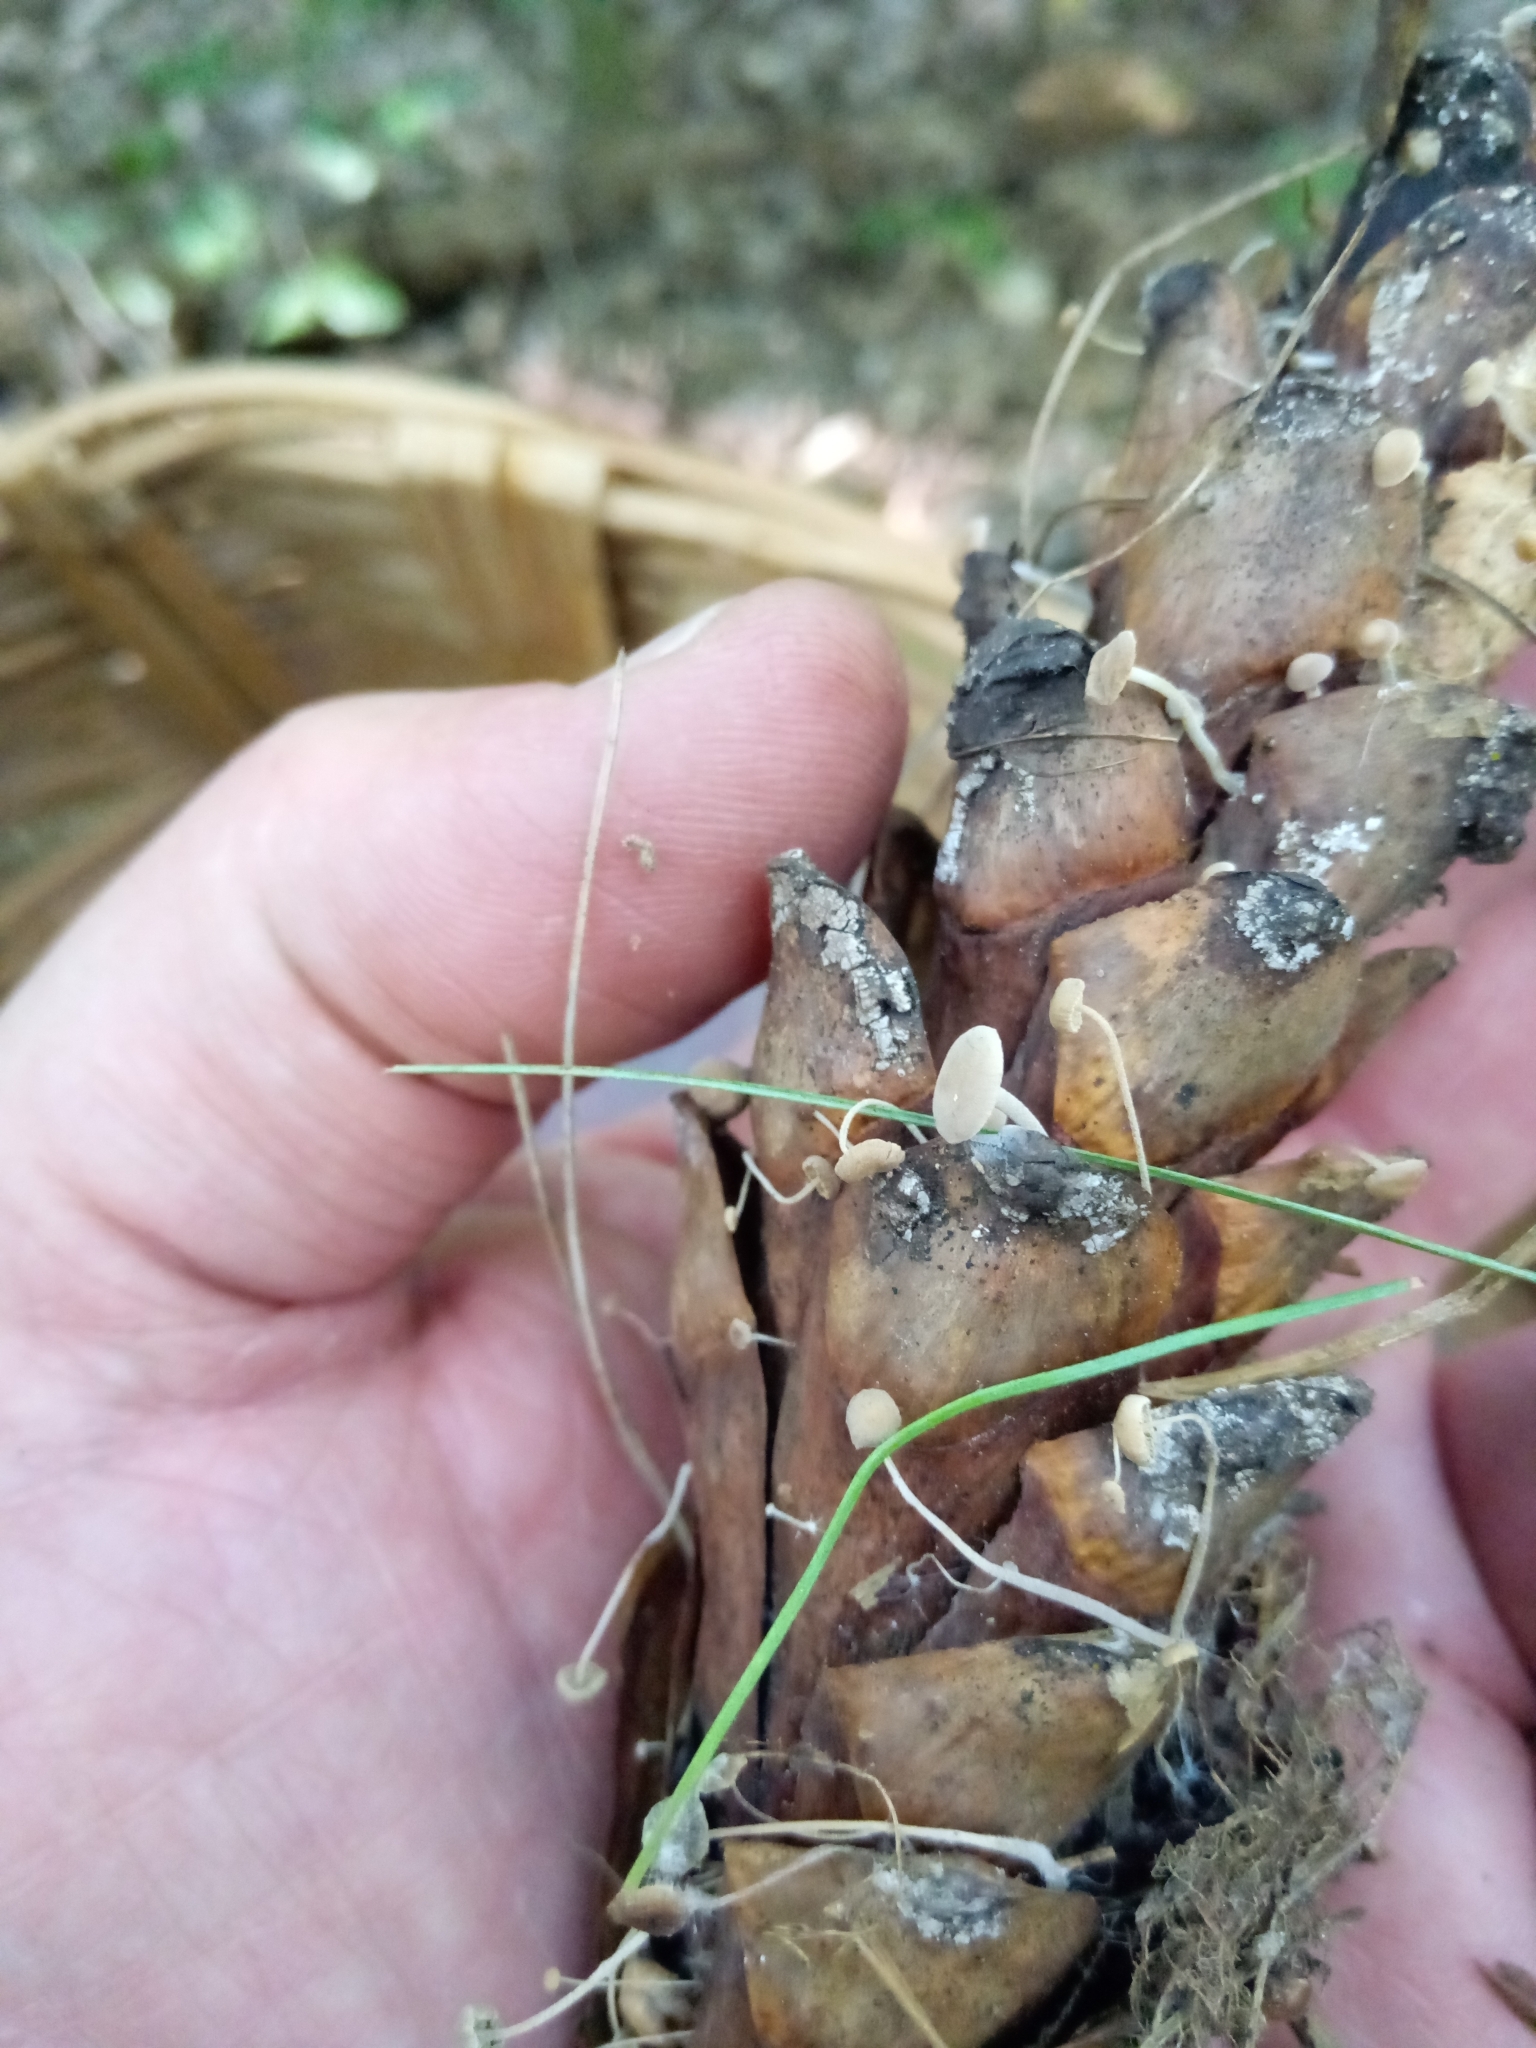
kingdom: Fungi
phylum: Basidiomycota
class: Agaricomycetes
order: Agaricales
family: Marasmiaceae
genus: Baeospora
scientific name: Baeospora myosura
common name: Conifercone cap
